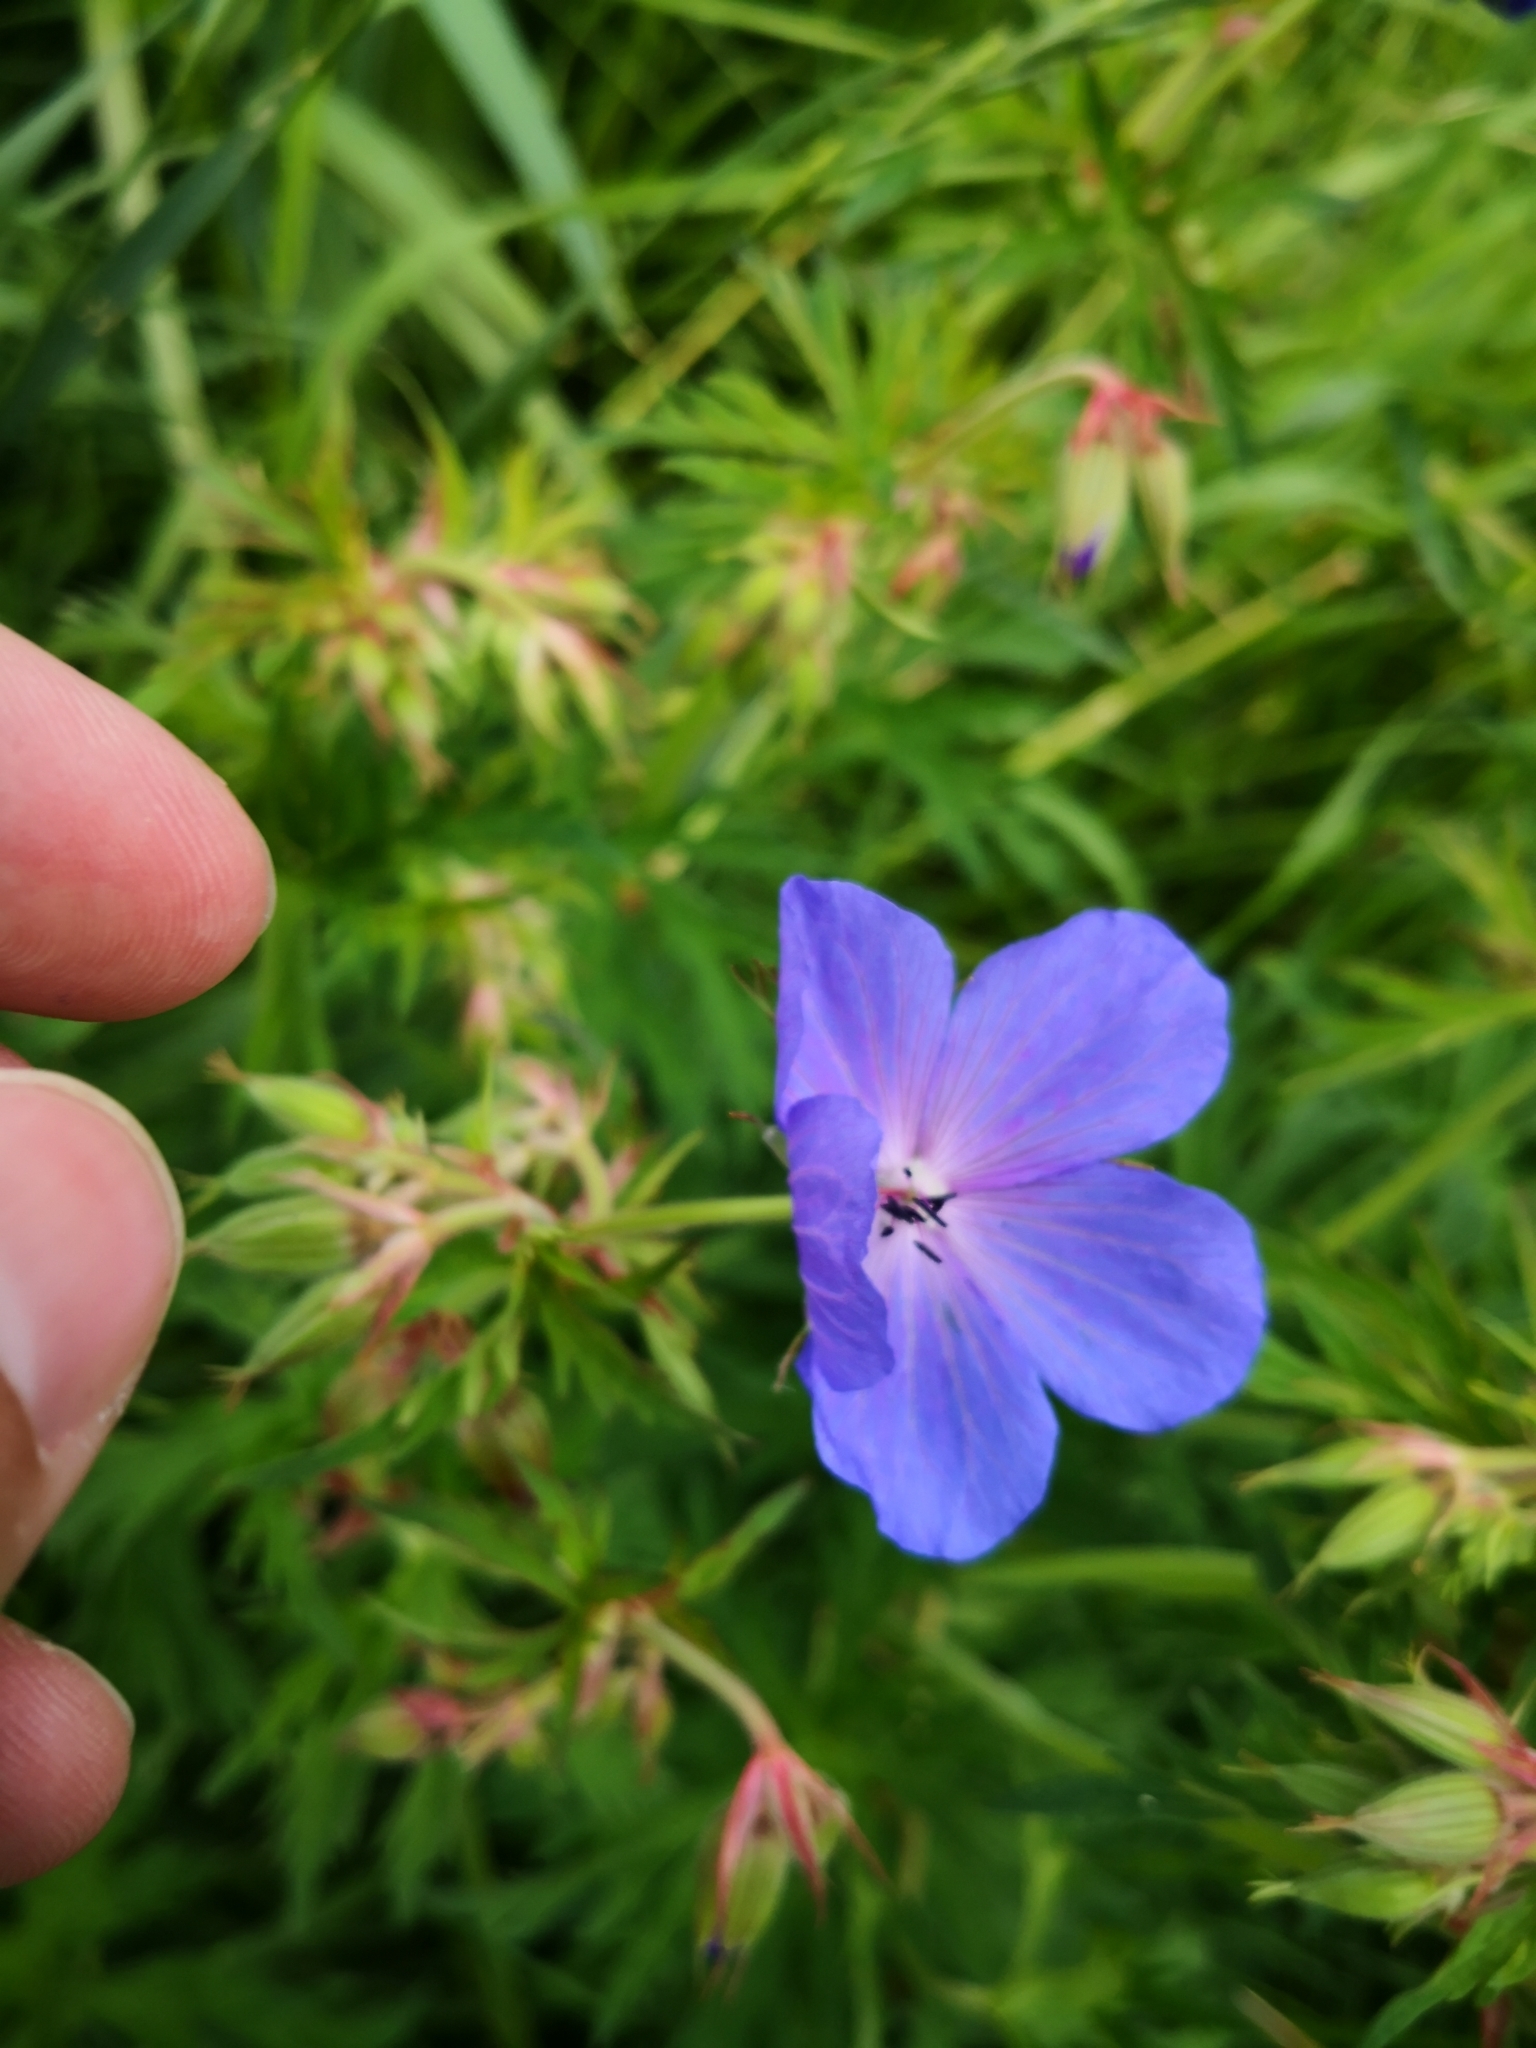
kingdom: Plantae
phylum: Tracheophyta
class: Magnoliopsida
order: Geraniales
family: Geraniaceae
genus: Geranium
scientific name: Geranium pratense
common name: Meadow crane's-bill
